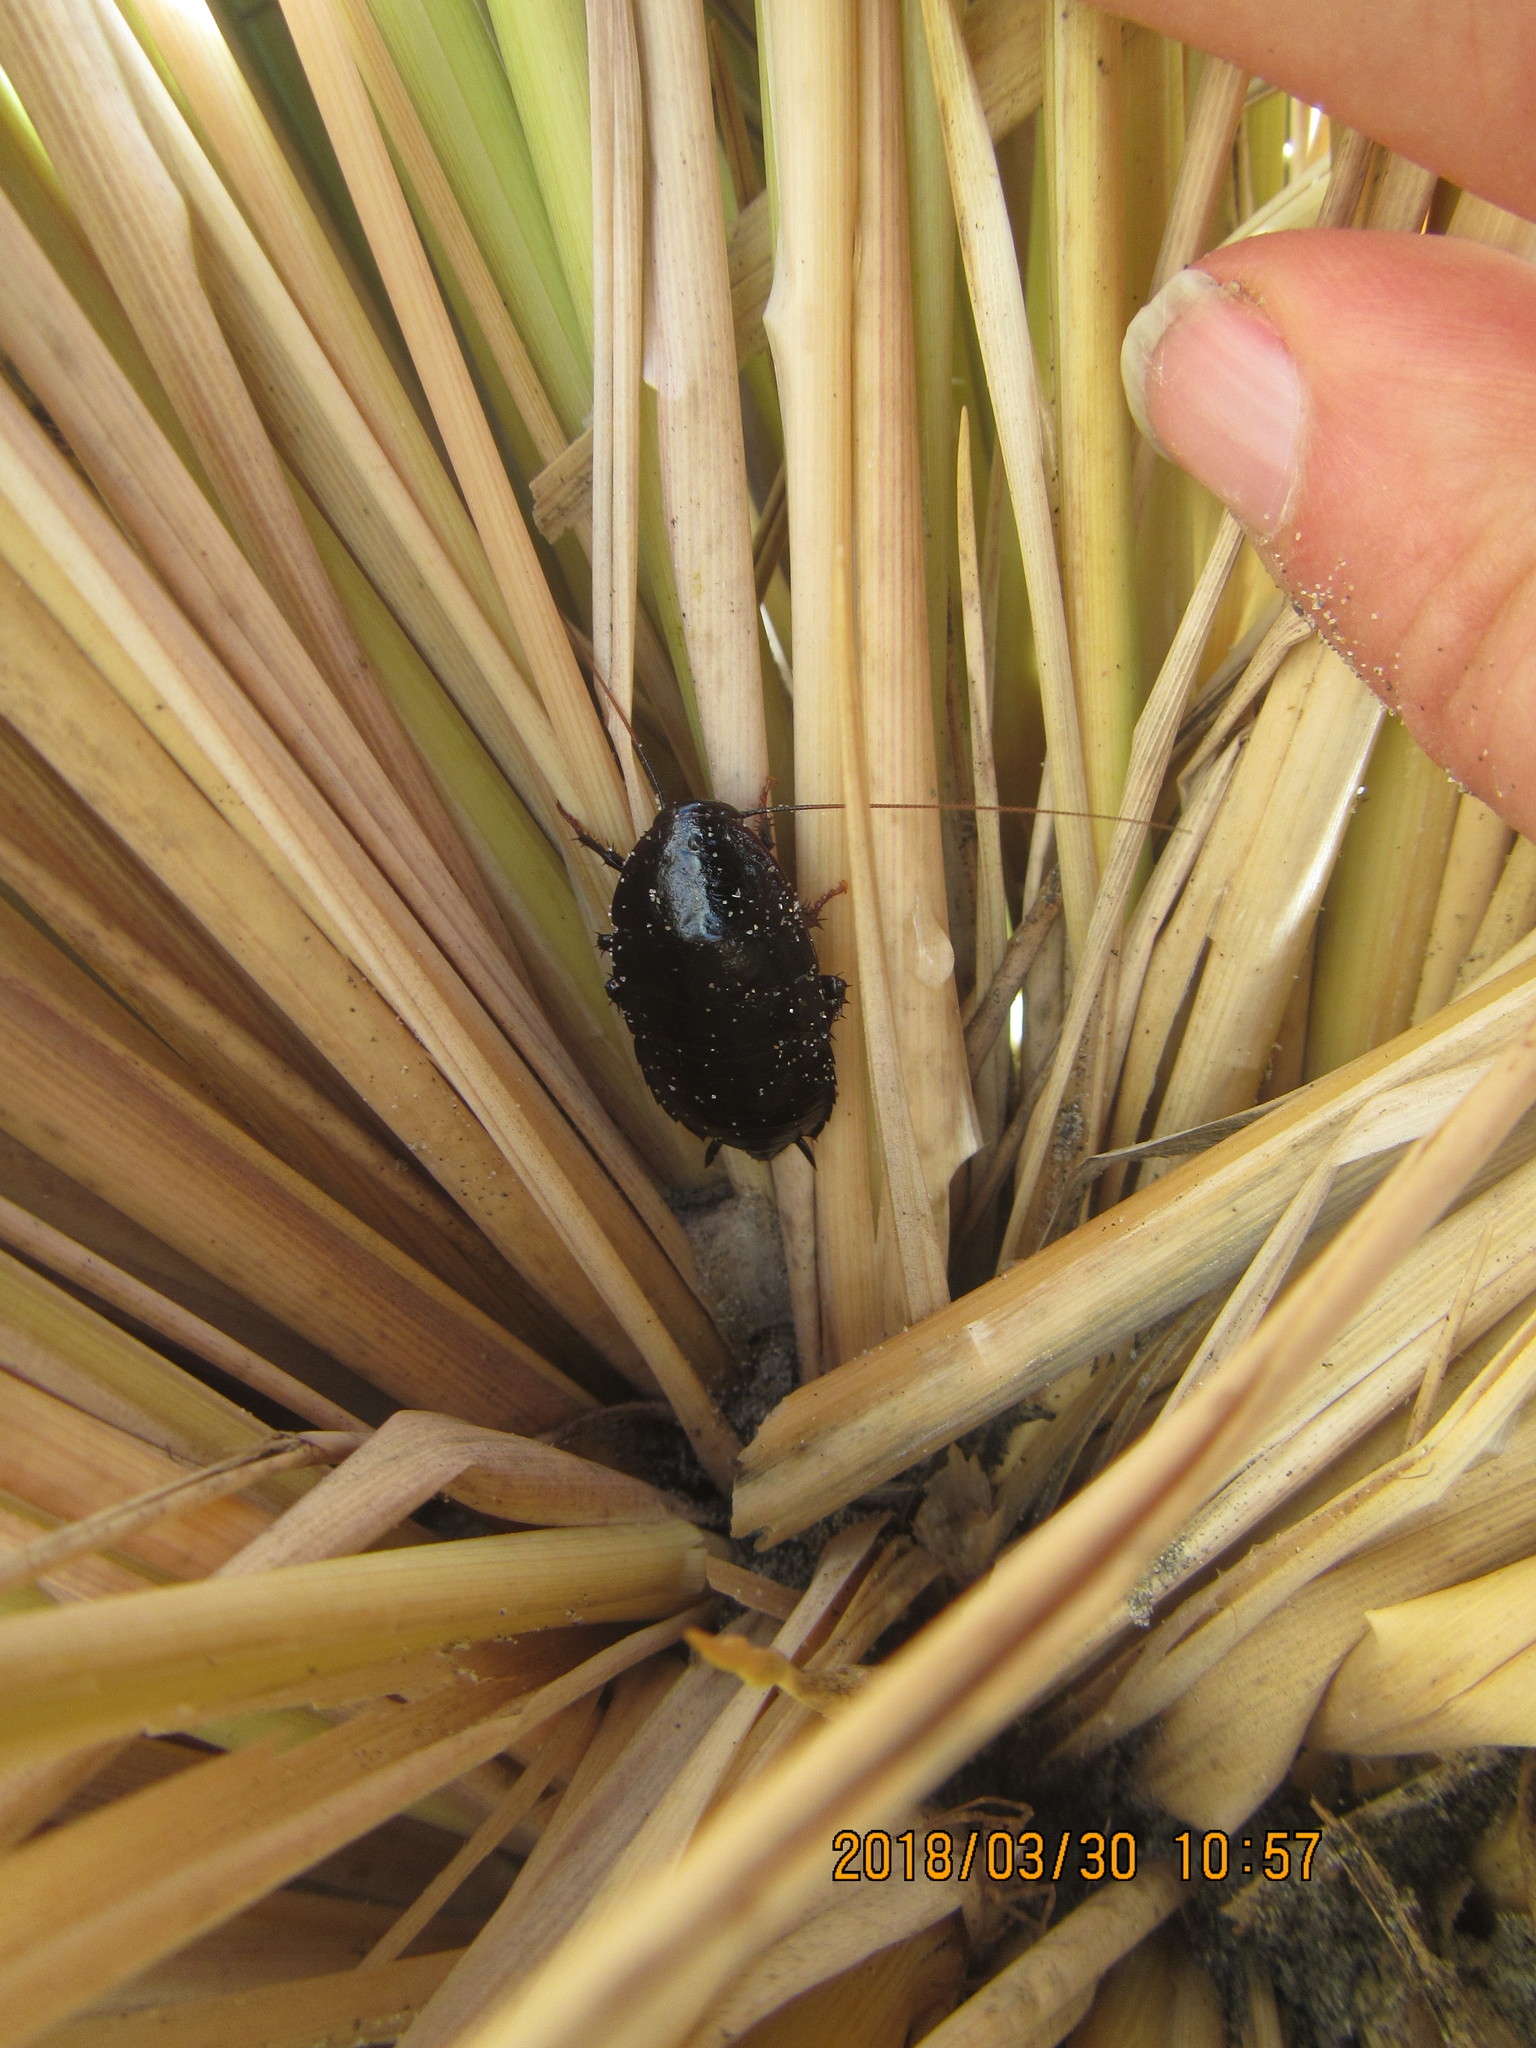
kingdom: Animalia
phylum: Arthropoda
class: Insecta
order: Blattodea
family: Blattidae
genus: Maoriblatta
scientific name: Maoriblatta novaeseelandiae
